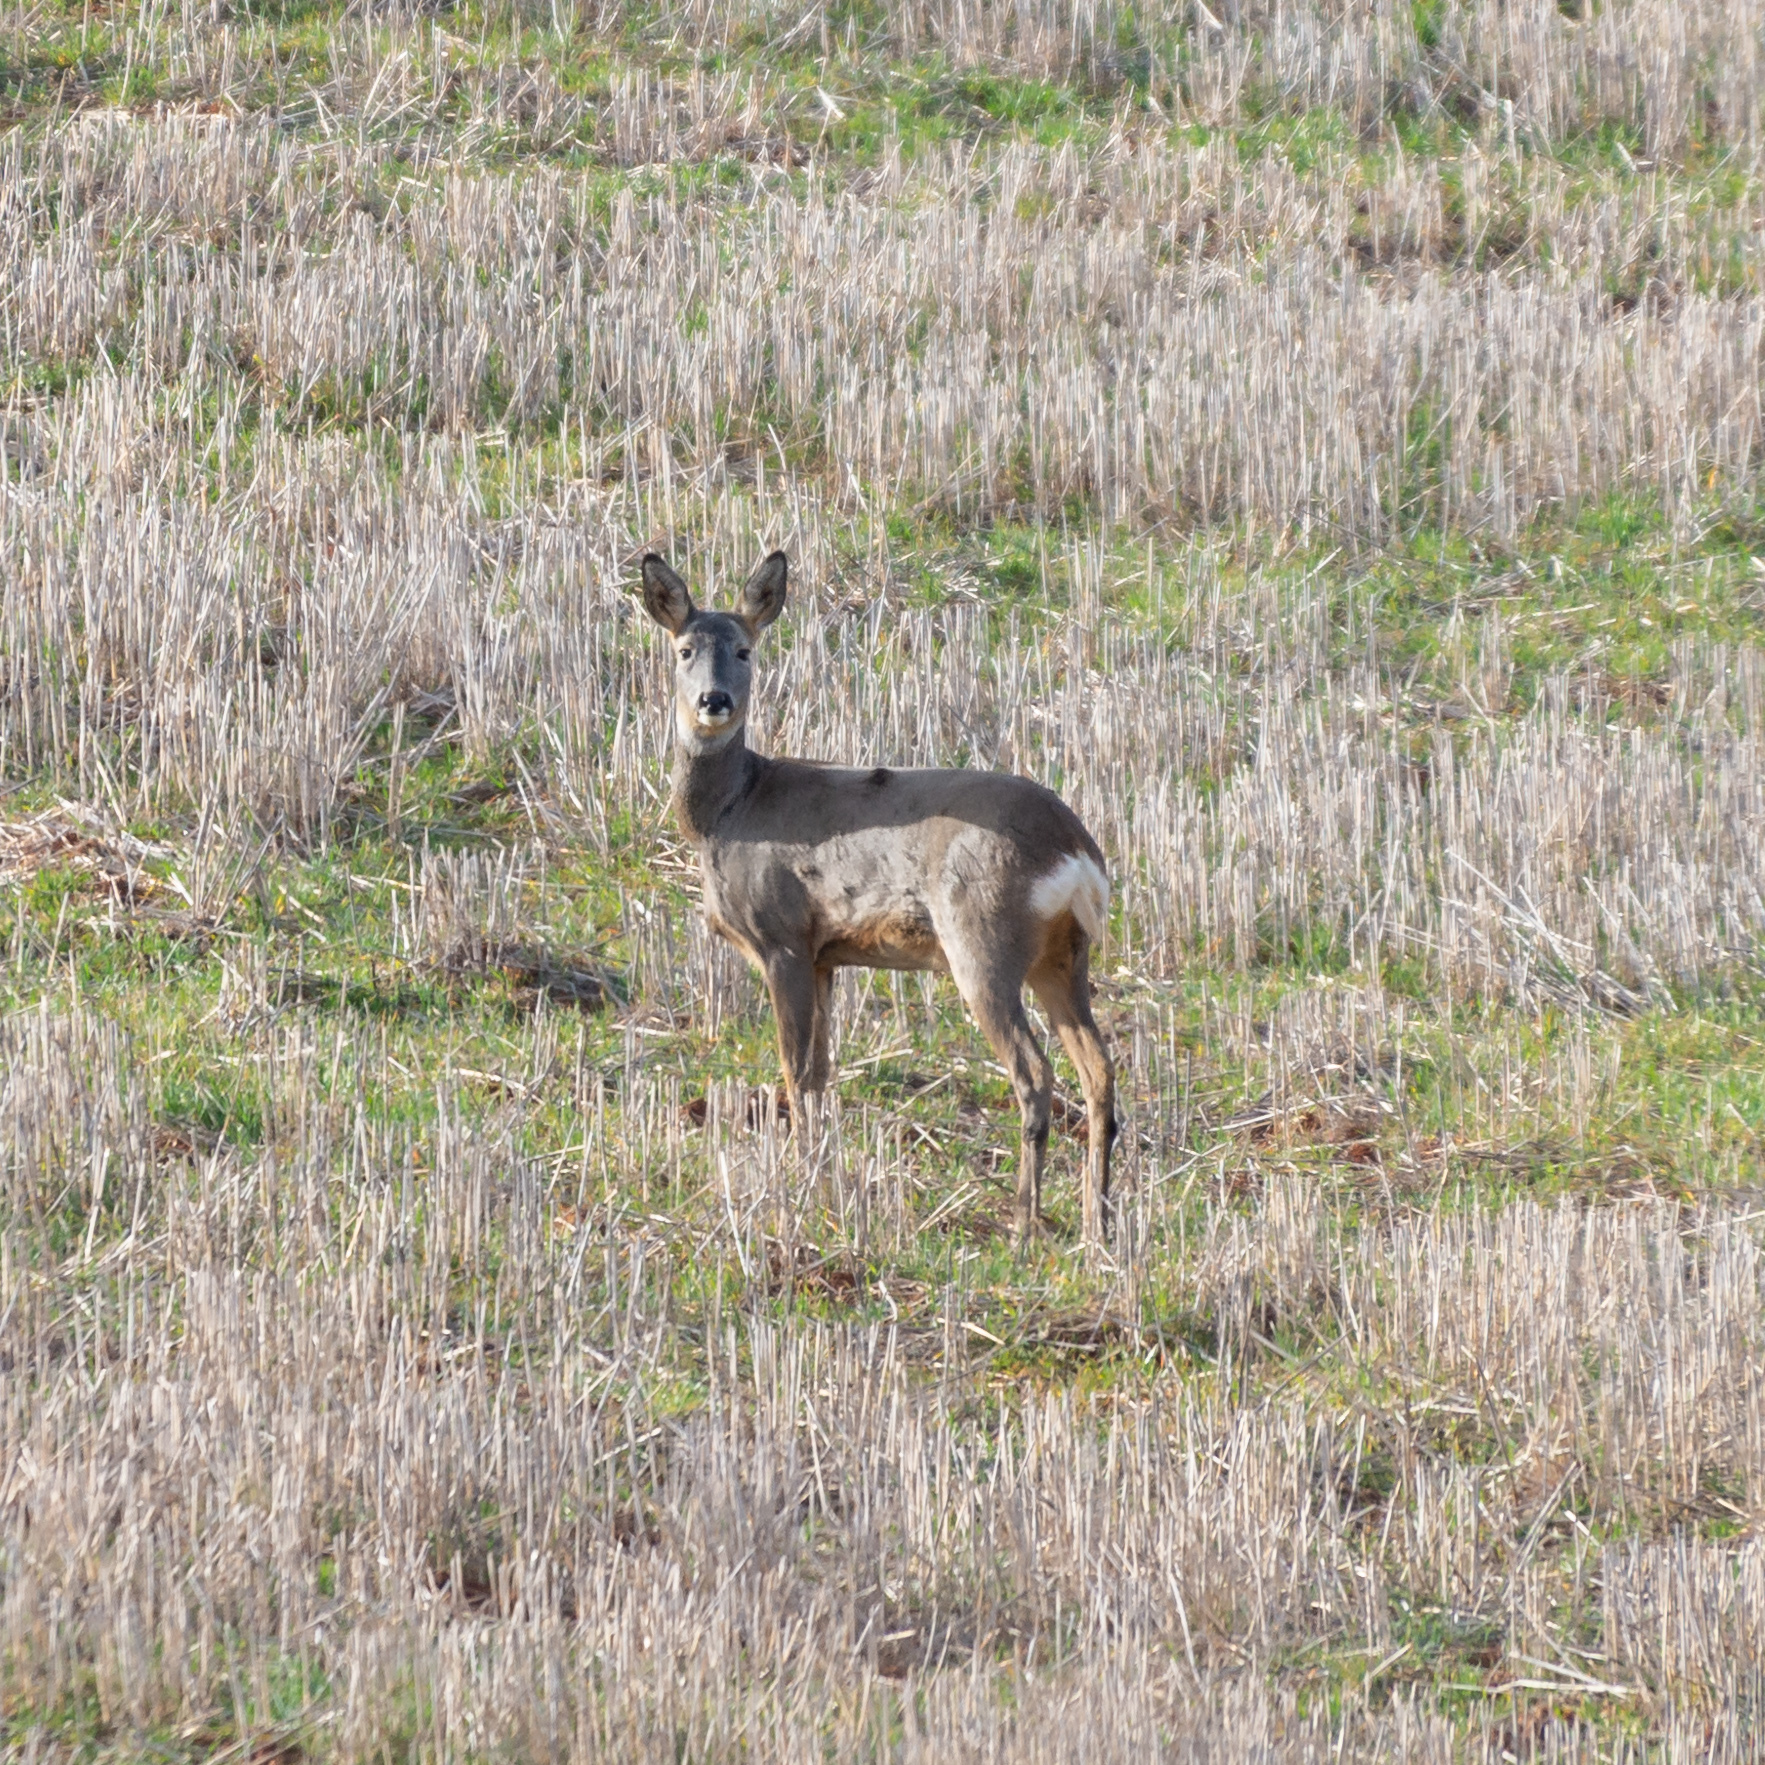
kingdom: Animalia
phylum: Chordata
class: Mammalia
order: Artiodactyla
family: Cervidae
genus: Capreolus
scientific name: Capreolus capreolus
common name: Western roe deer
